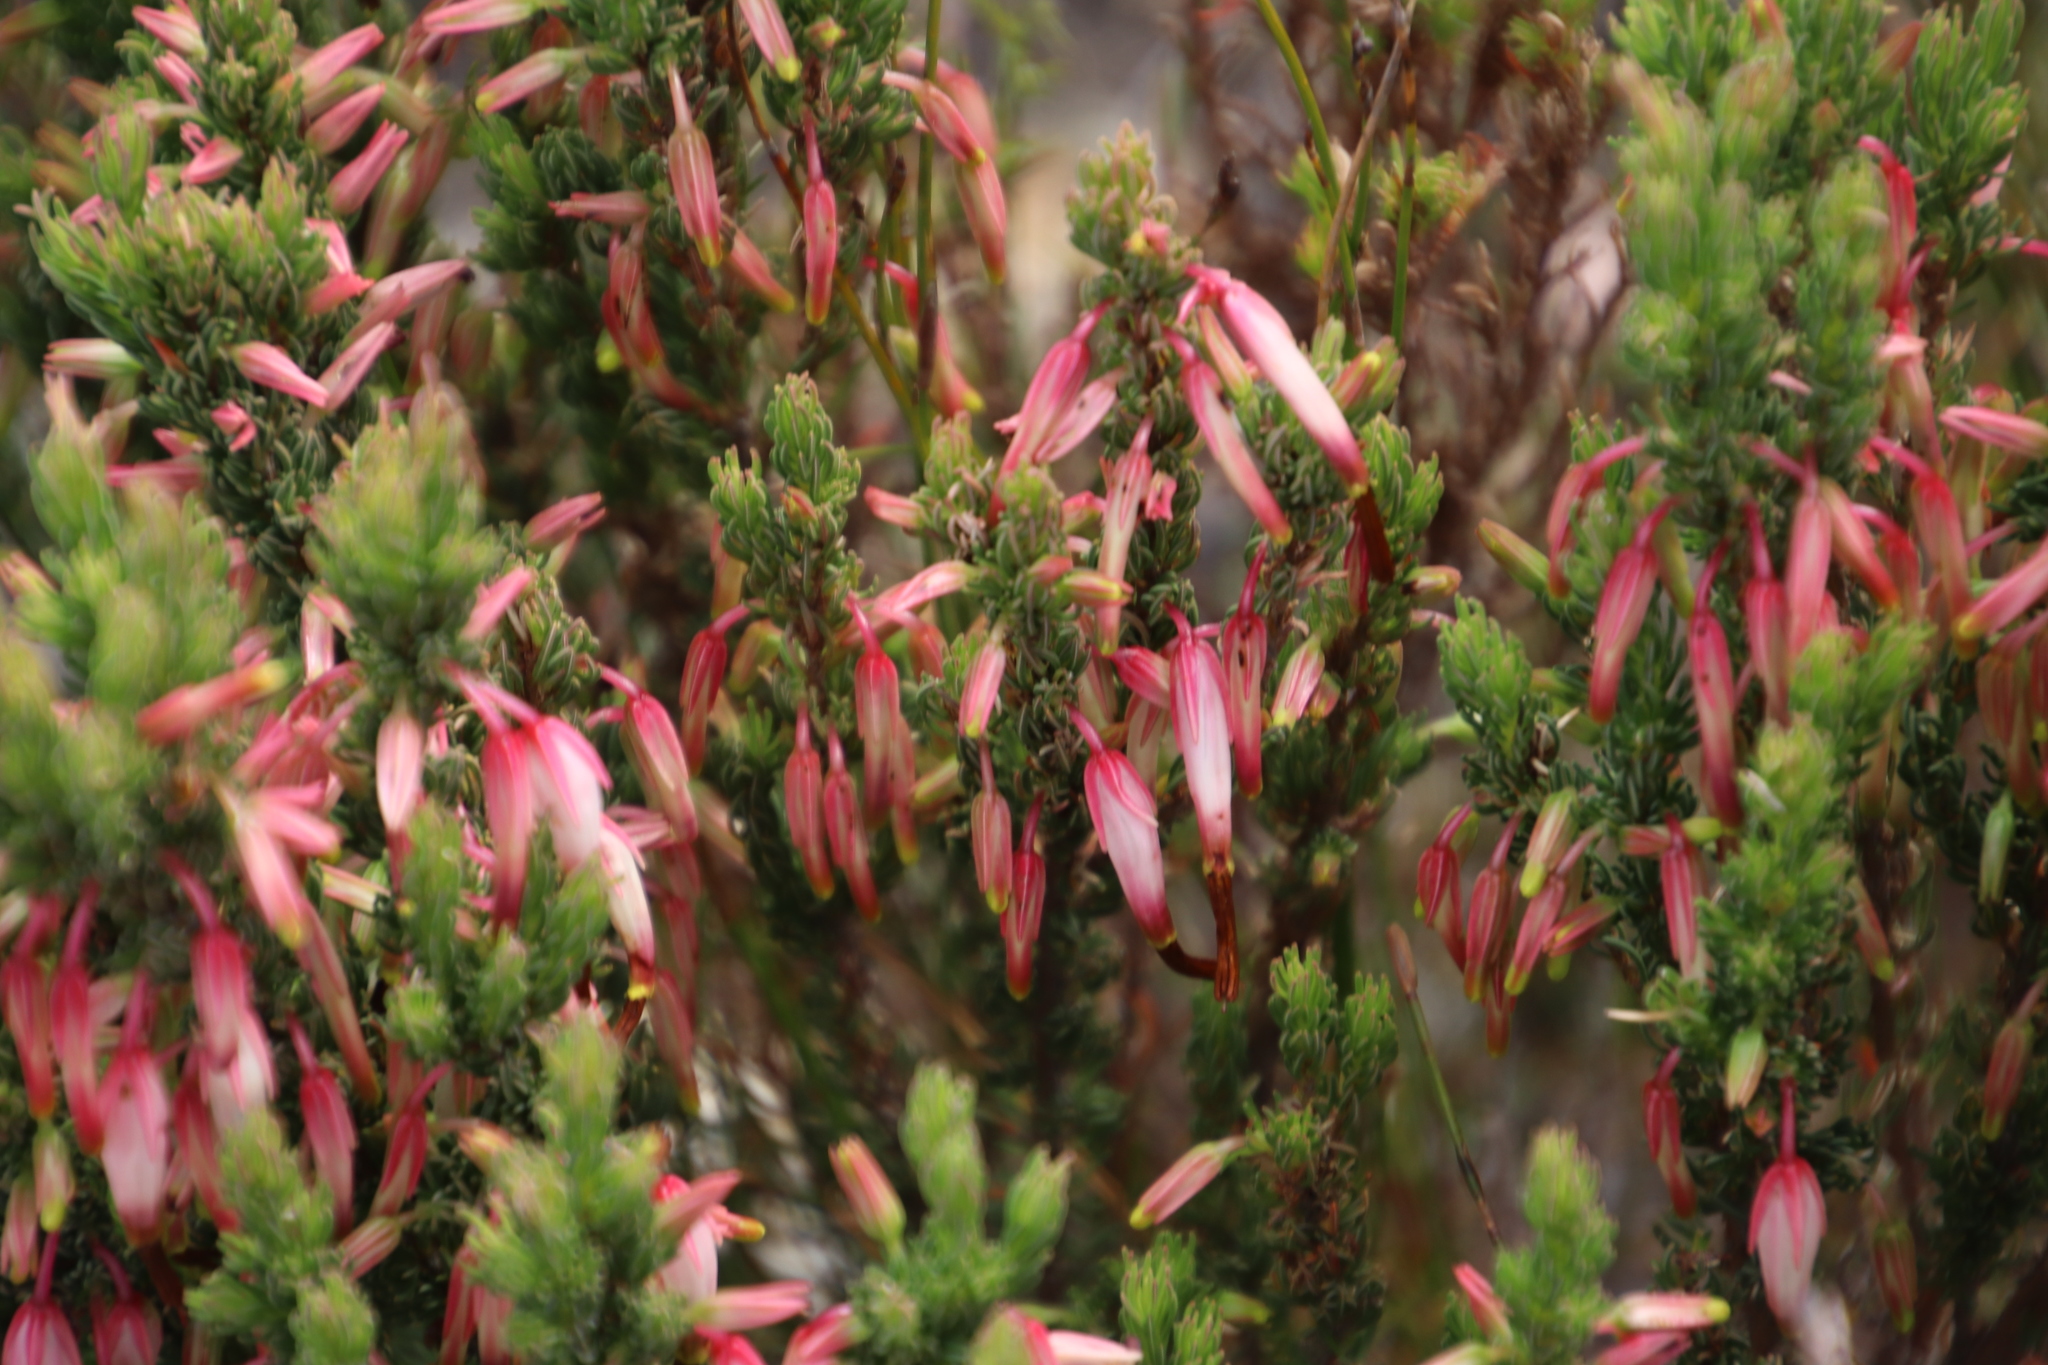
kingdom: Plantae
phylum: Tracheophyta
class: Magnoliopsida
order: Ericales
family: Ericaceae
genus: Erica
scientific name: Erica plukenetii
